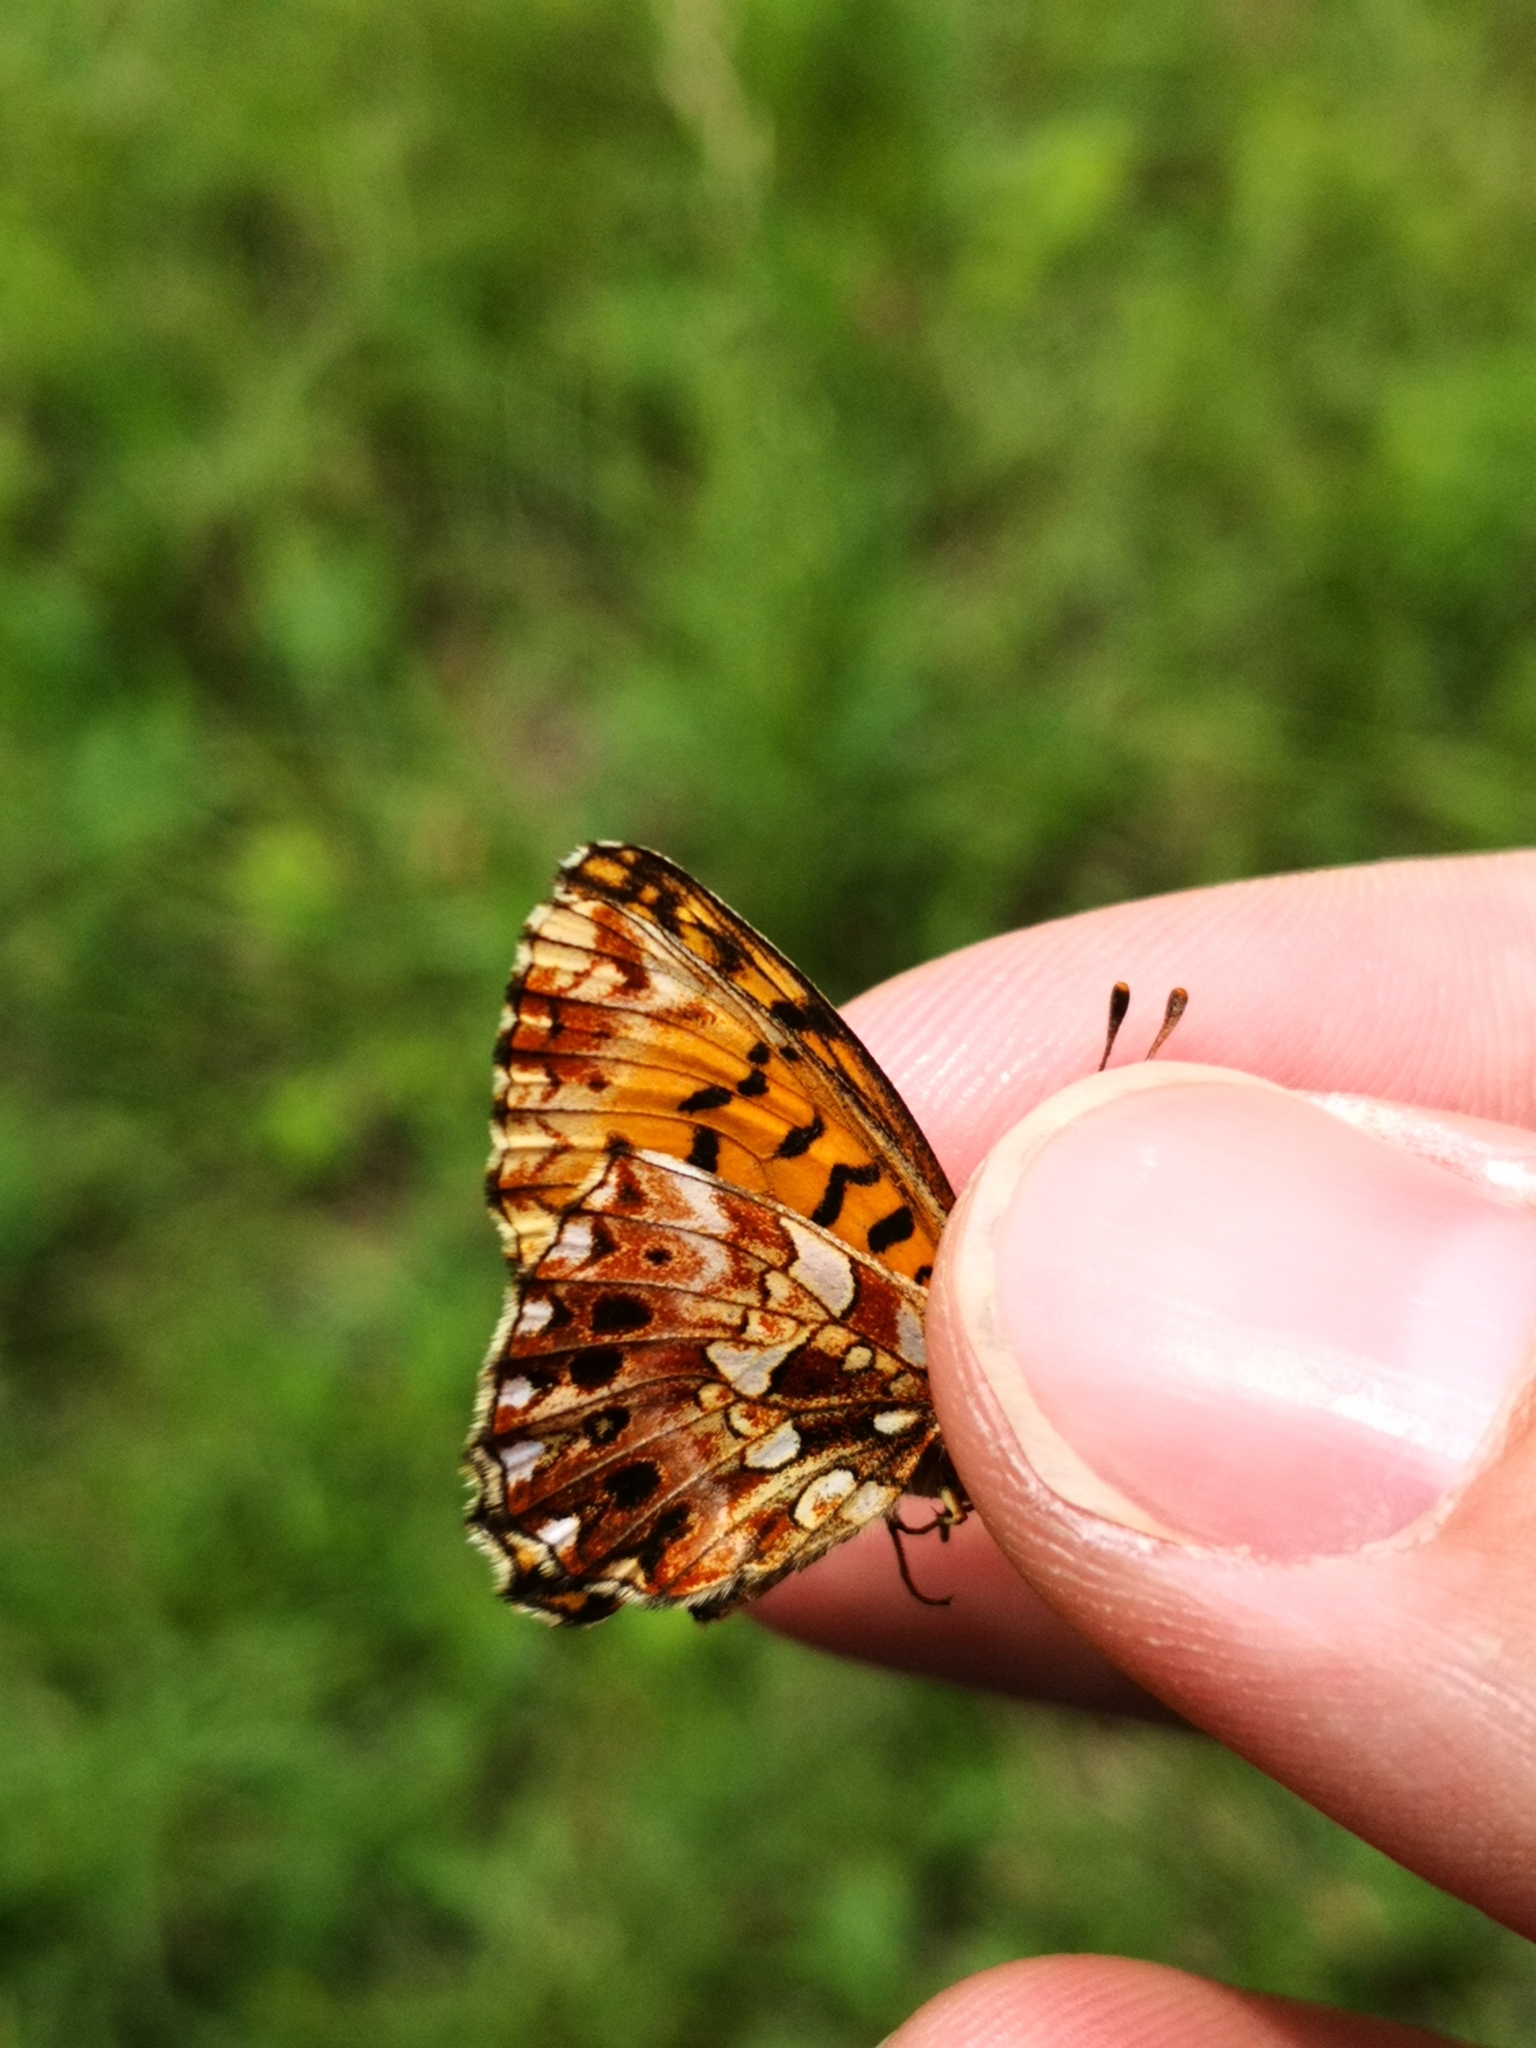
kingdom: Animalia
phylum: Arthropoda
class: Insecta
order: Lepidoptera
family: Nymphalidae
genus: Boloria
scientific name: Boloria dia
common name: Weaver's fritillary
